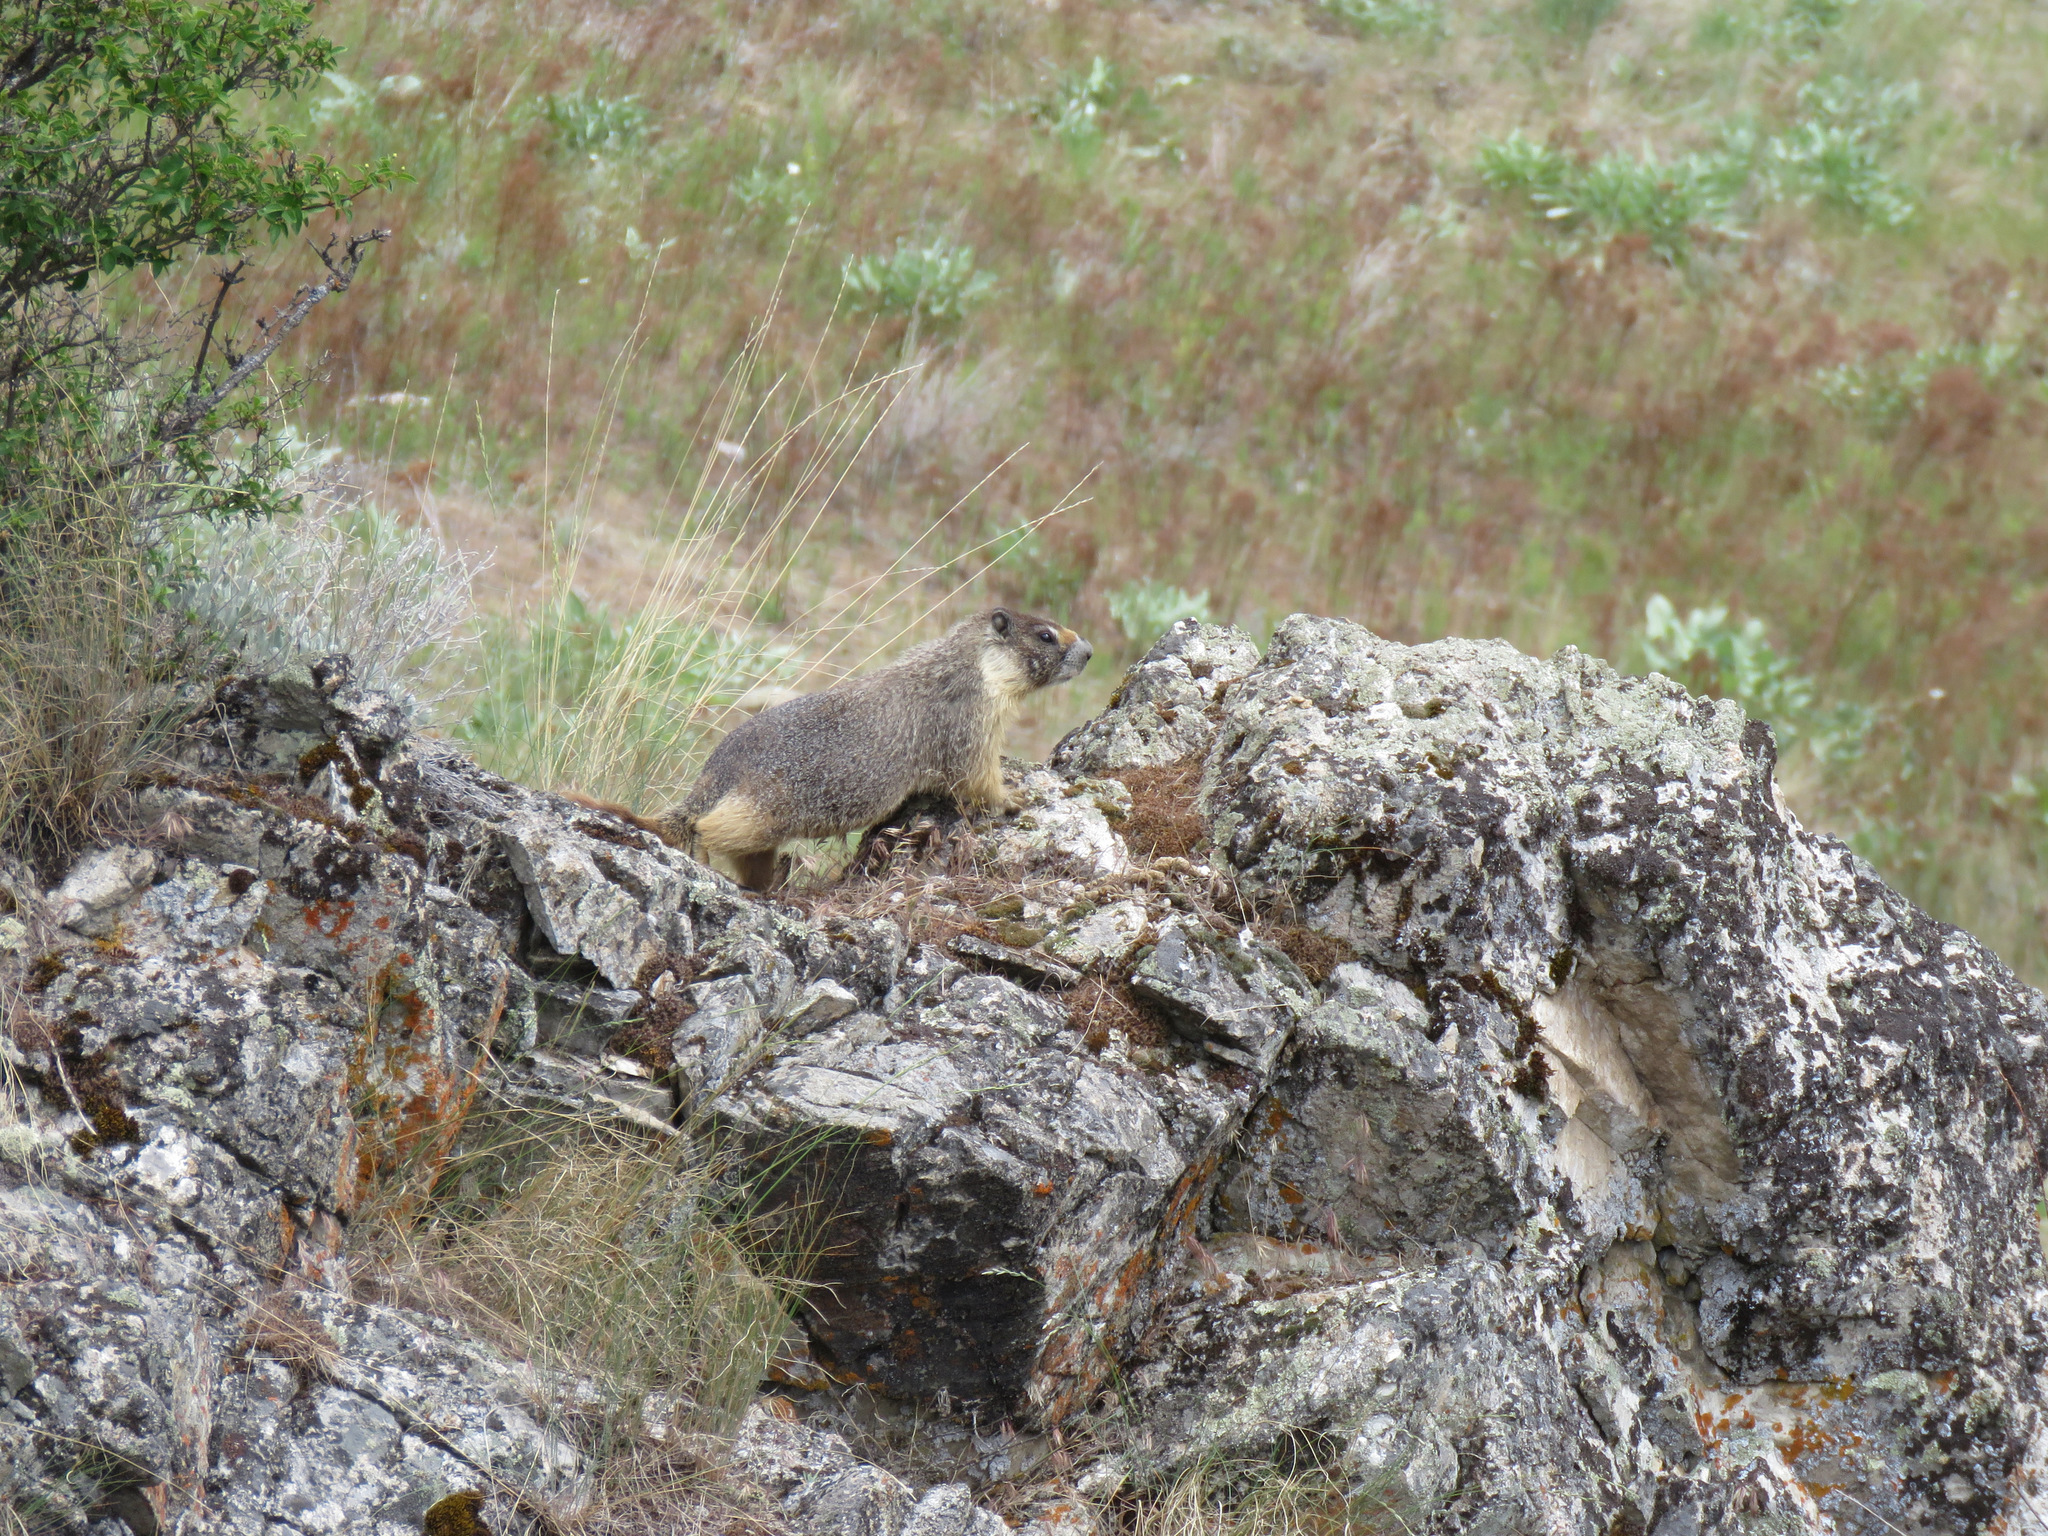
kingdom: Animalia
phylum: Chordata
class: Mammalia
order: Rodentia
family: Sciuridae
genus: Marmota
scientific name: Marmota flaviventris
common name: Yellow-bellied marmot
